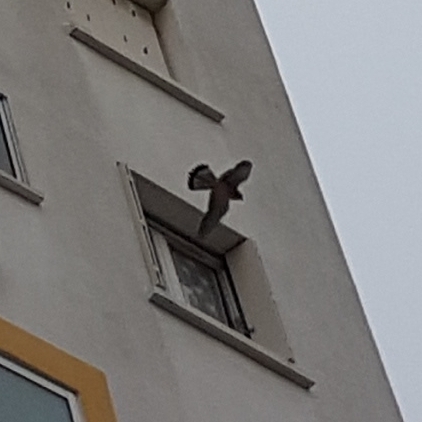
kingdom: Animalia
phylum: Chordata
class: Aves
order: Falconiformes
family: Falconidae
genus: Falco
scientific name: Falco tinnunculus
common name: Common kestrel
